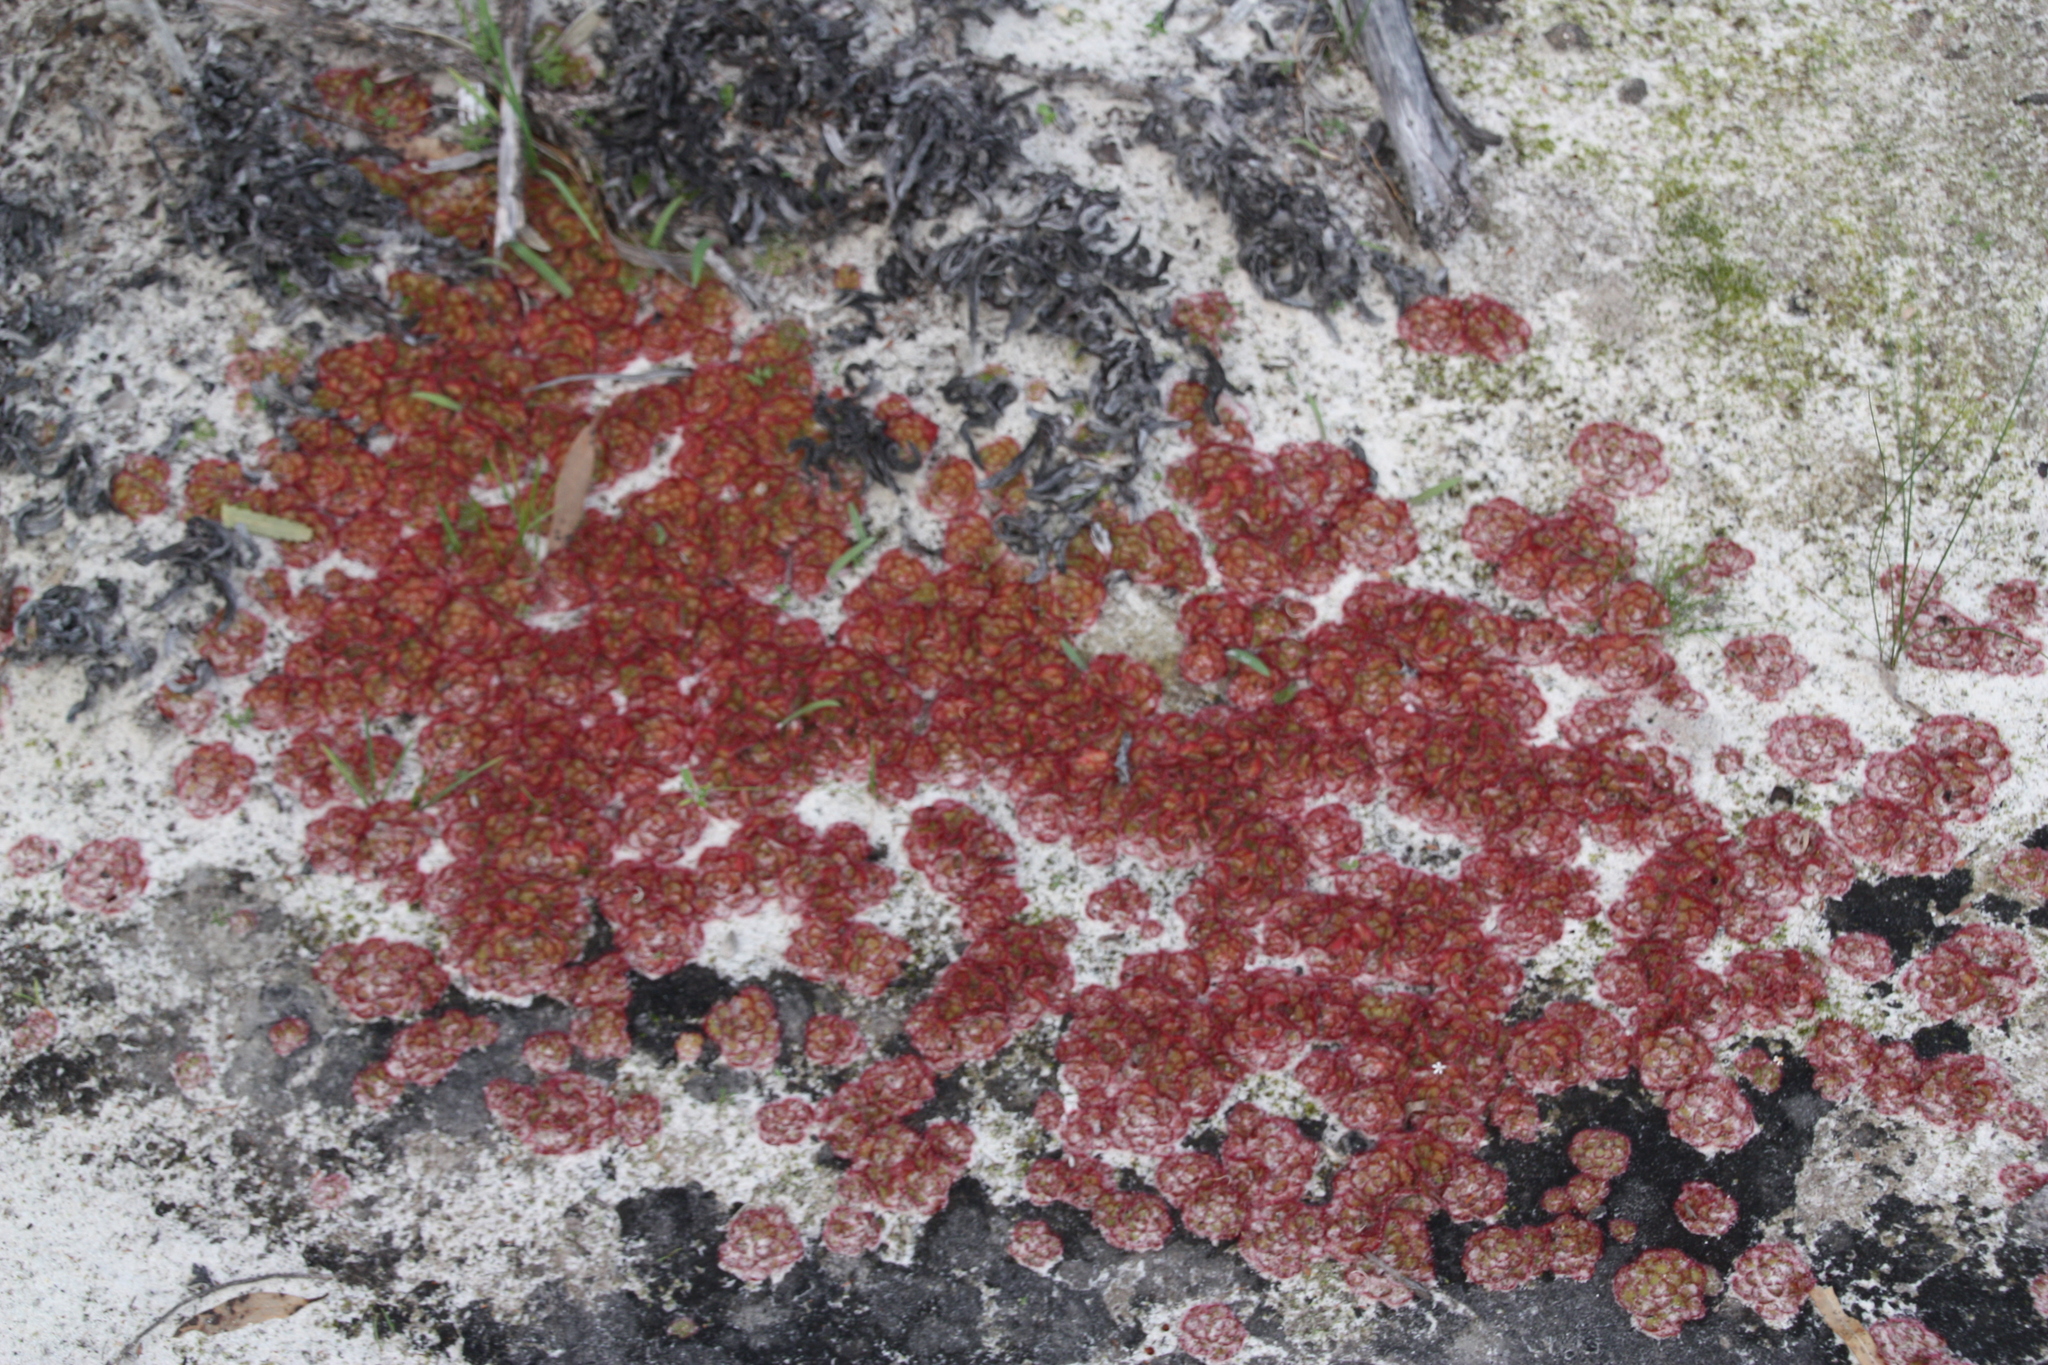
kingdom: Plantae
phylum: Tracheophyta
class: Magnoliopsida
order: Caryophyllales
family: Droseraceae
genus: Drosera
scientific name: Drosera zonaria
